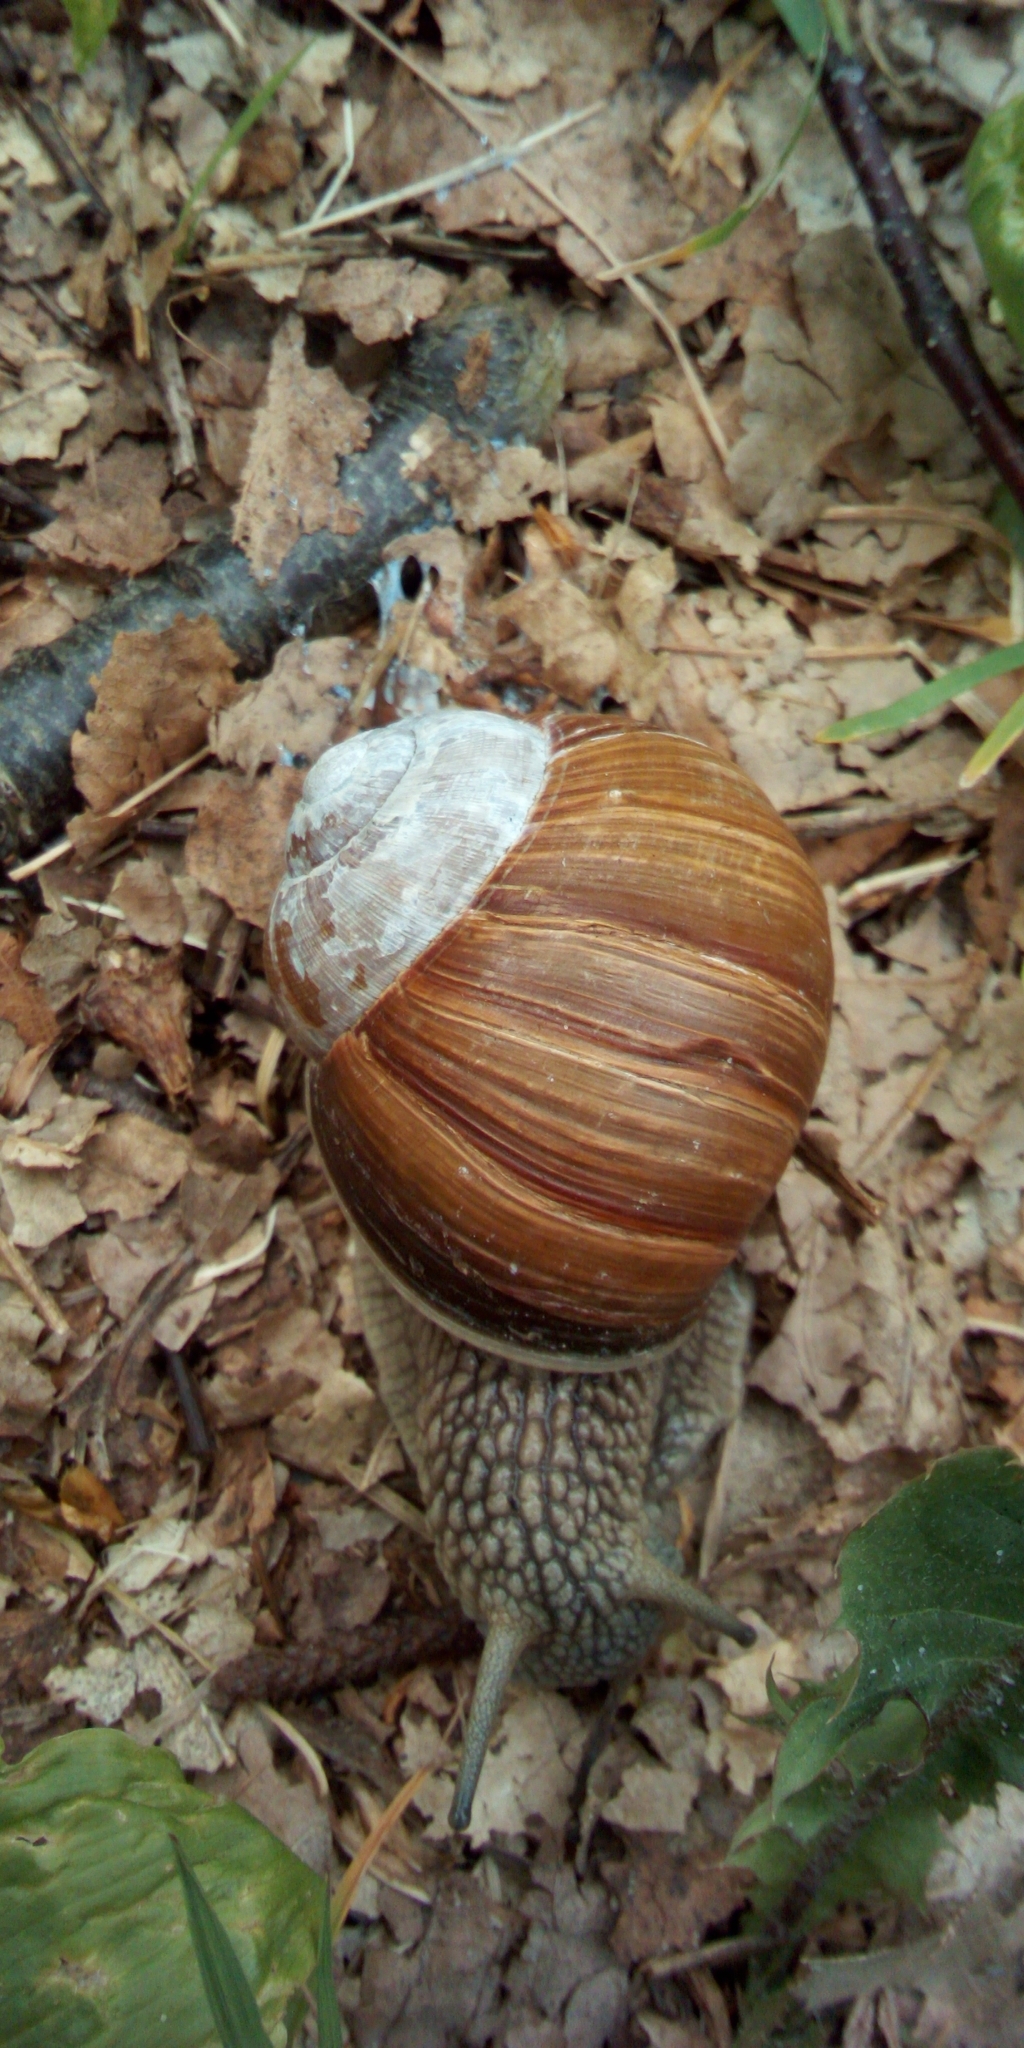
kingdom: Animalia
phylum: Mollusca
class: Gastropoda
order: Stylommatophora
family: Helicidae
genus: Helix
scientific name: Helix pomatia
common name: Roman snail
